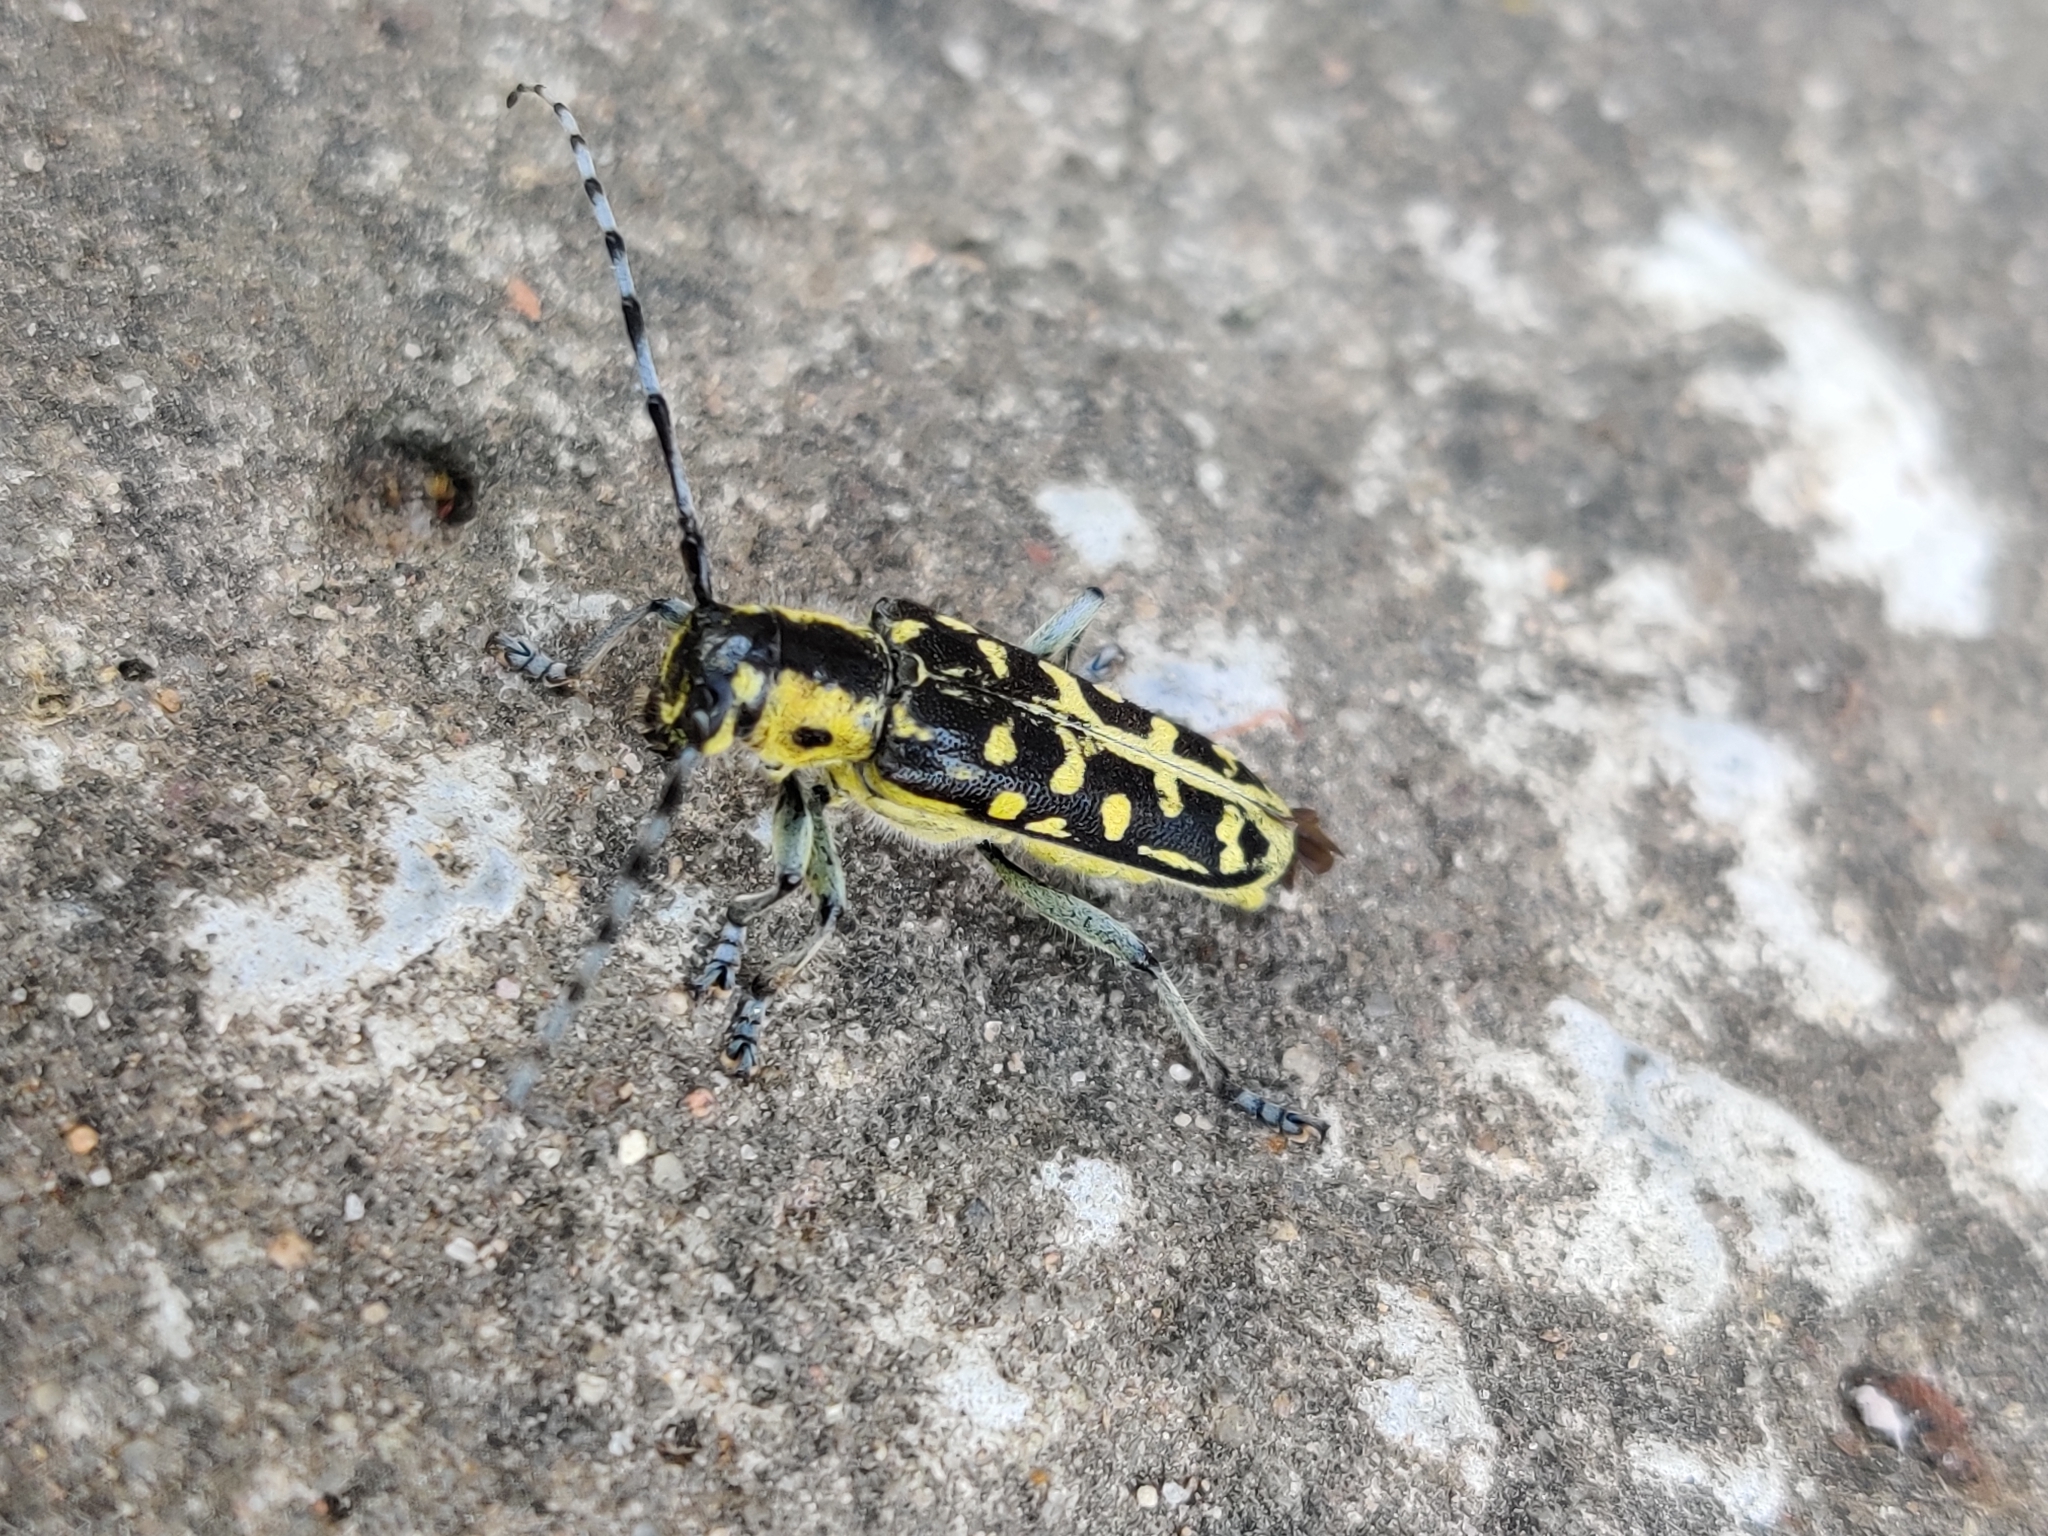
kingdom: Animalia
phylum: Arthropoda
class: Insecta
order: Coleoptera
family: Cerambycidae
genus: Saperda
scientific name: Saperda scalaris
